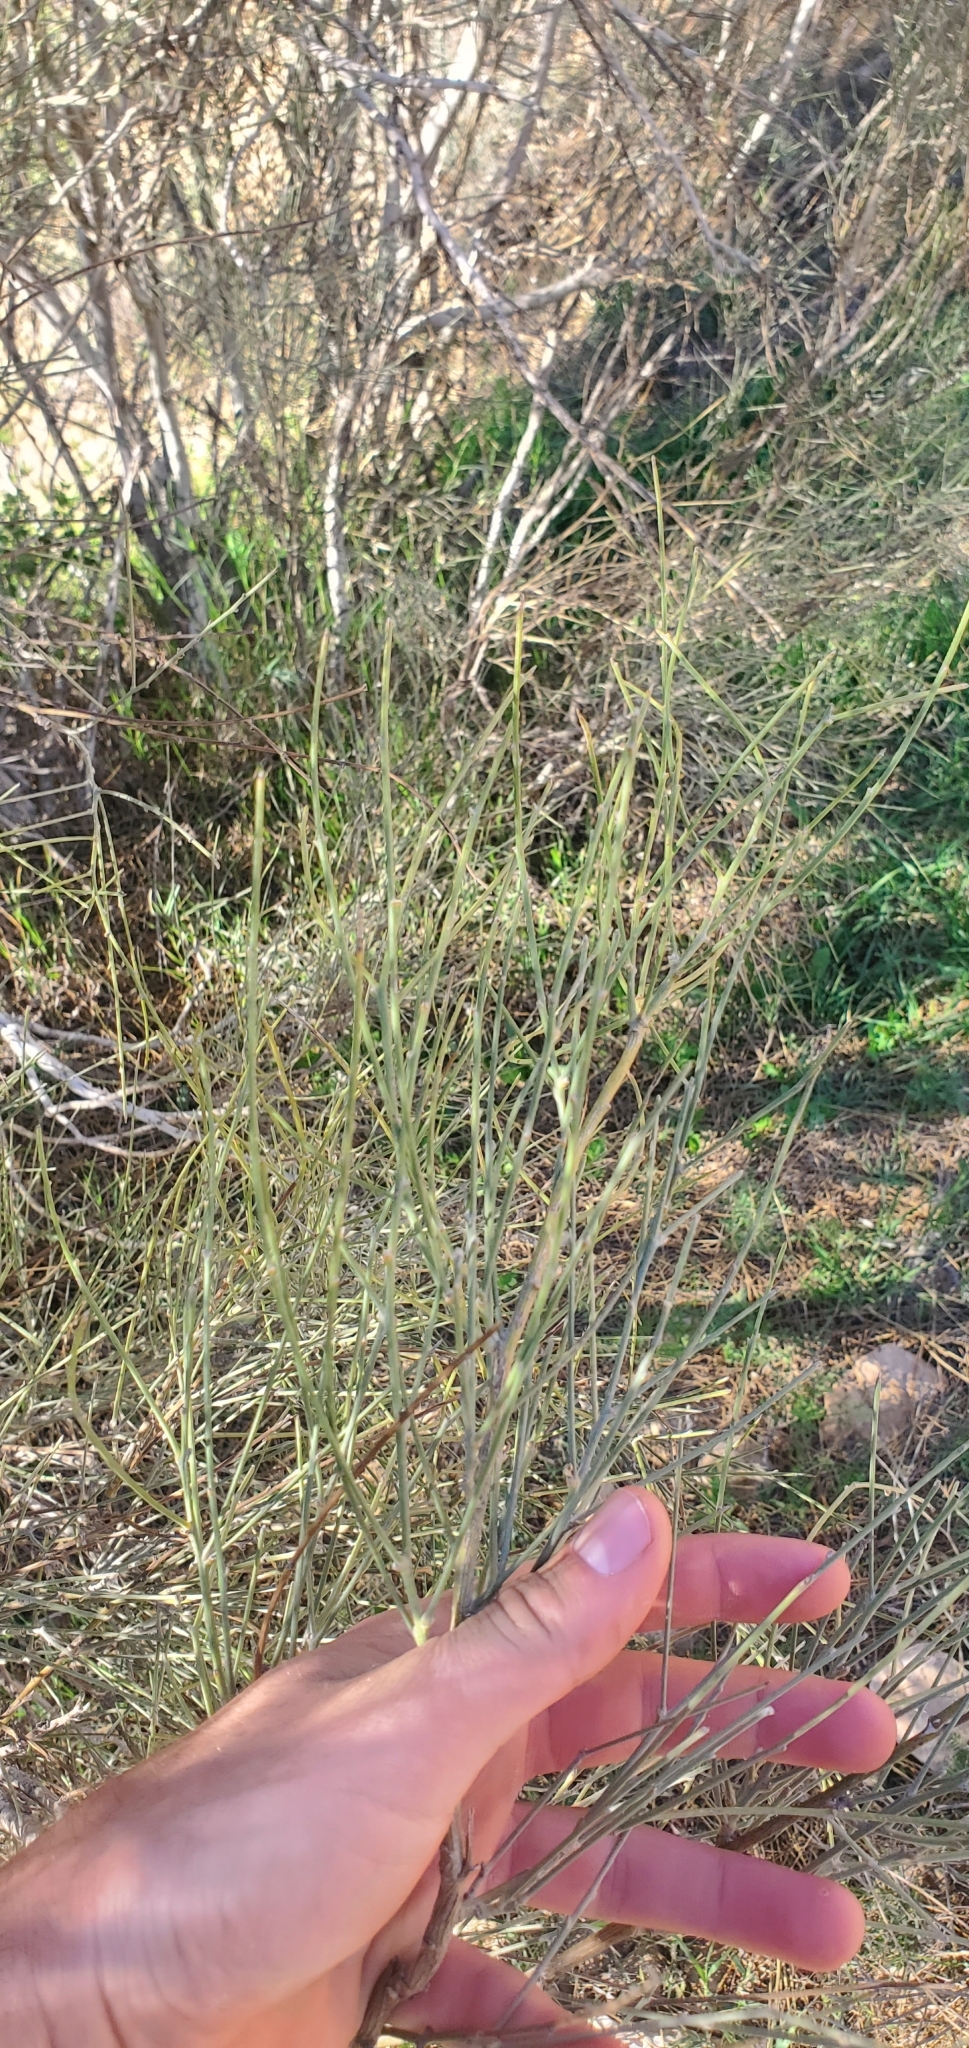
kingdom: Plantae
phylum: Tracheophyta
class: Magnoliopsida
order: Fabales
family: Fabaceae
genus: Retama
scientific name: Retama raetam
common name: Retem
